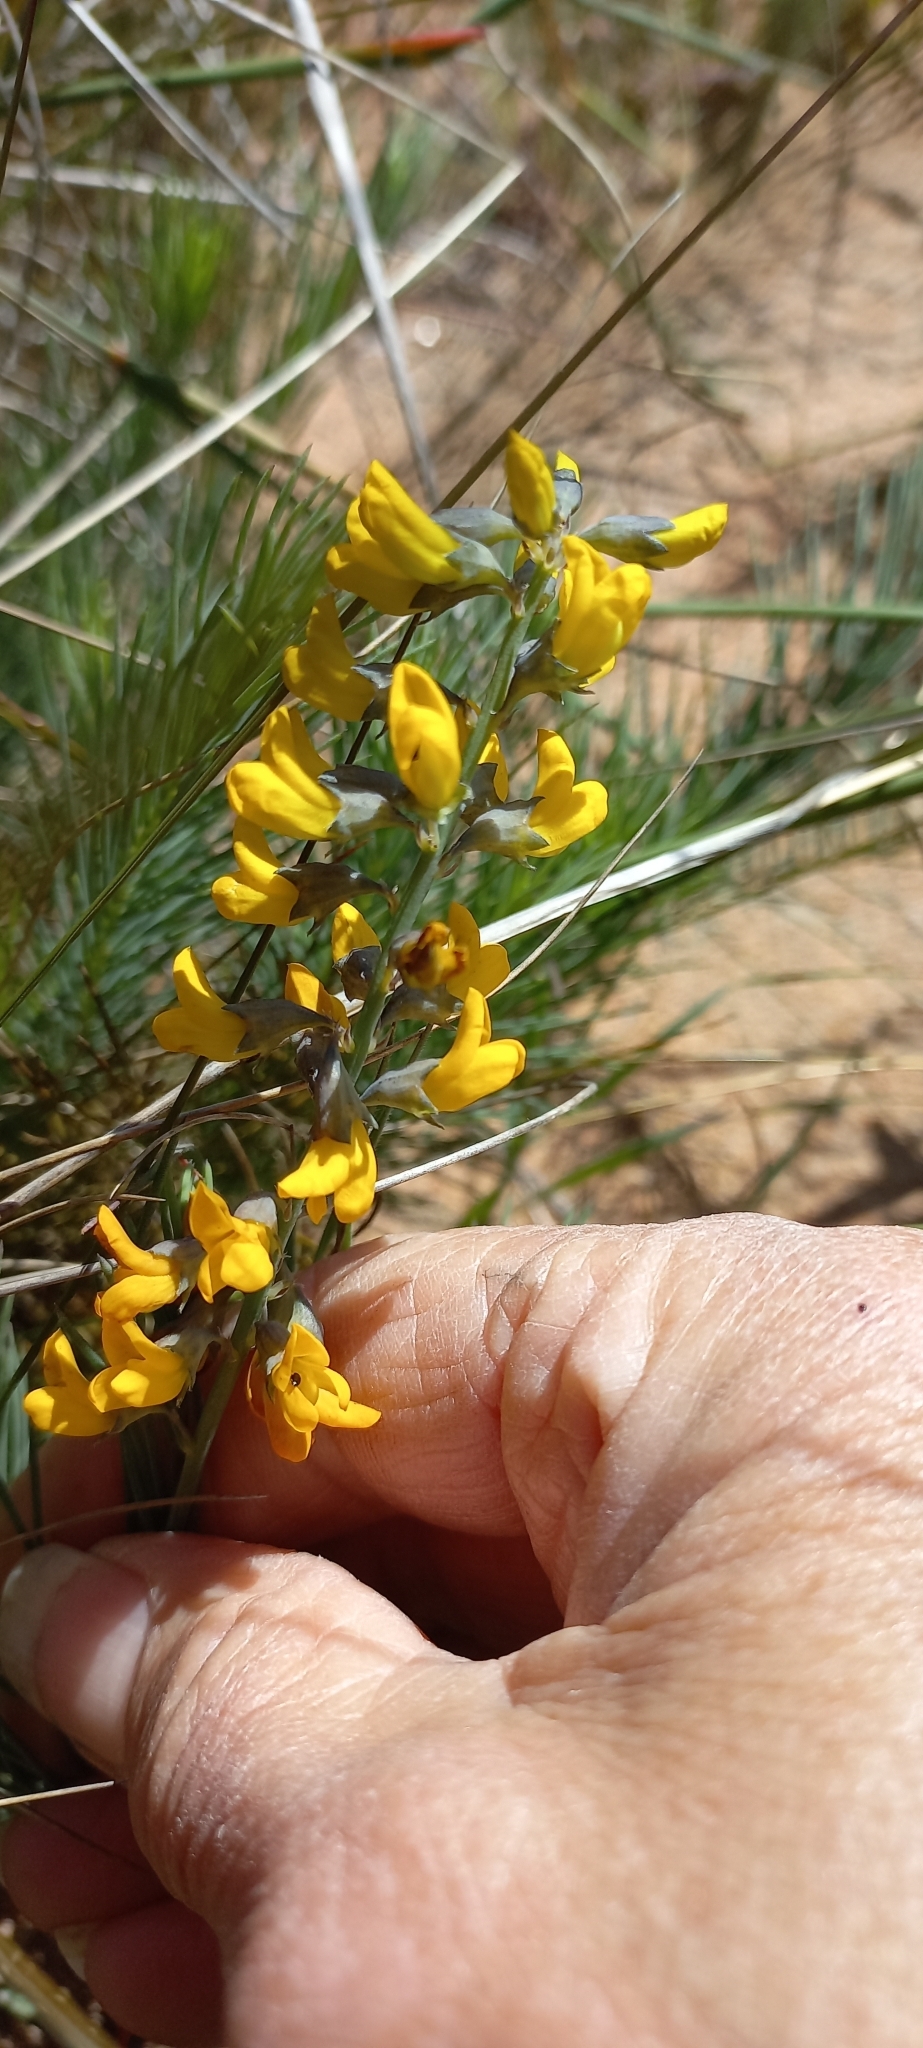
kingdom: Plantae
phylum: Tracheophyta
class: Magnoliopsida
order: Fabales
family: Fabaceae
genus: Lebeckia
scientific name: Lebeckia plukenetiana
